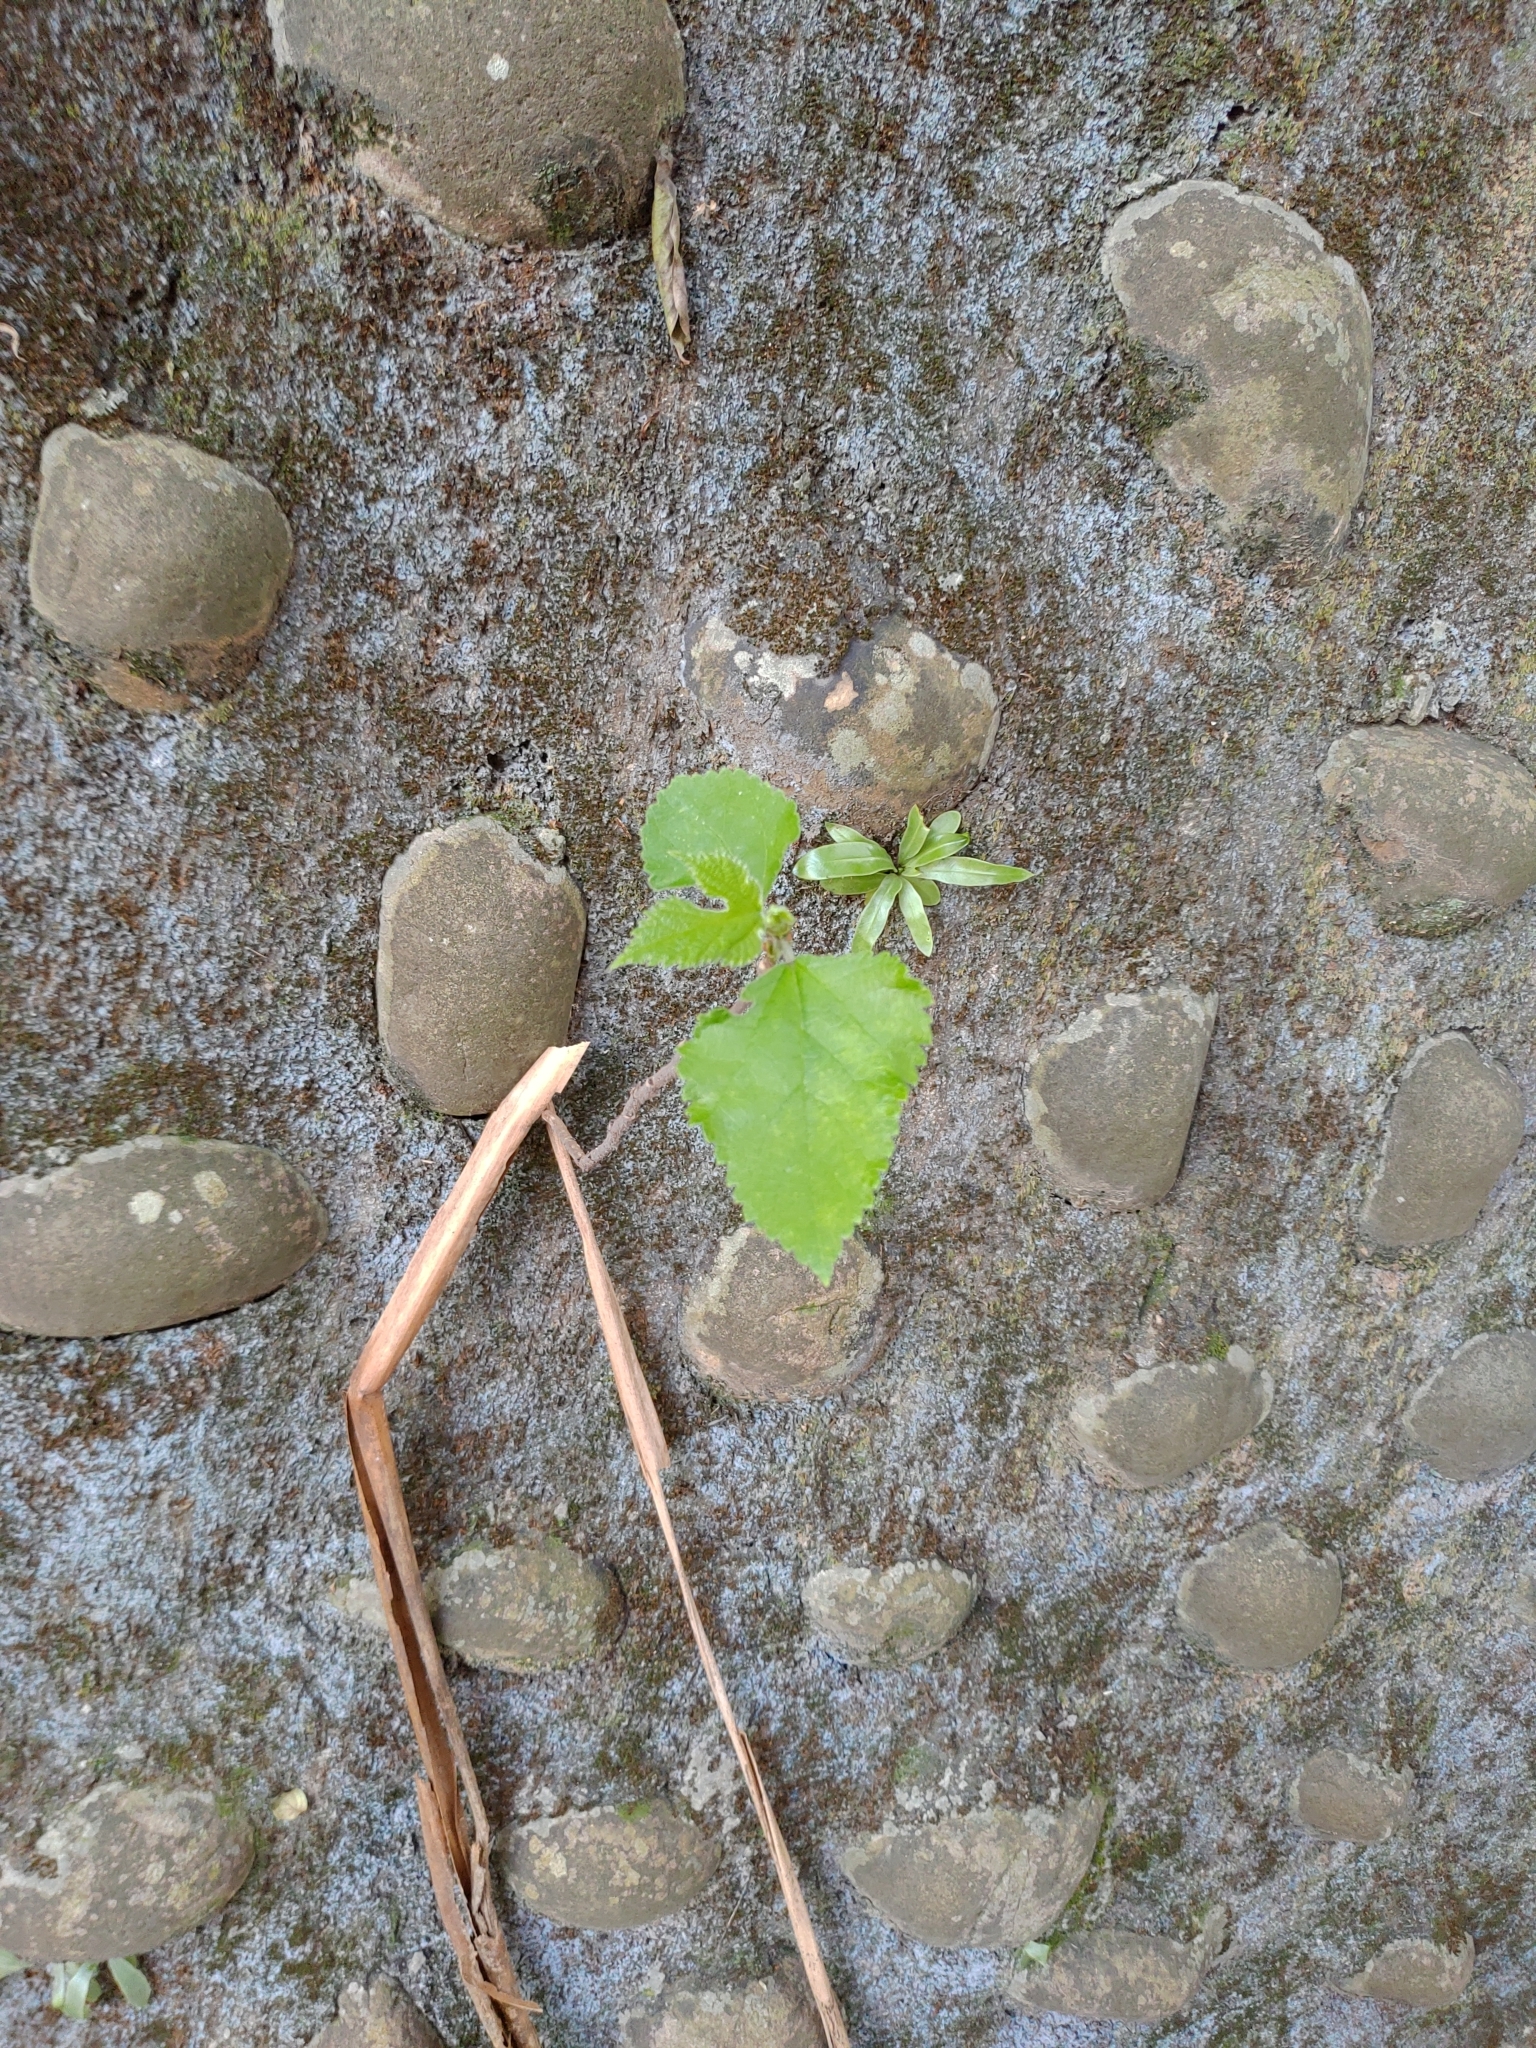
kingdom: Plantae
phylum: Tracheophyta
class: Magnoliopsida
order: Rosales
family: Moraceae
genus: Broussonetia
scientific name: Broussonetia papyrifera
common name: Paper mulberry
